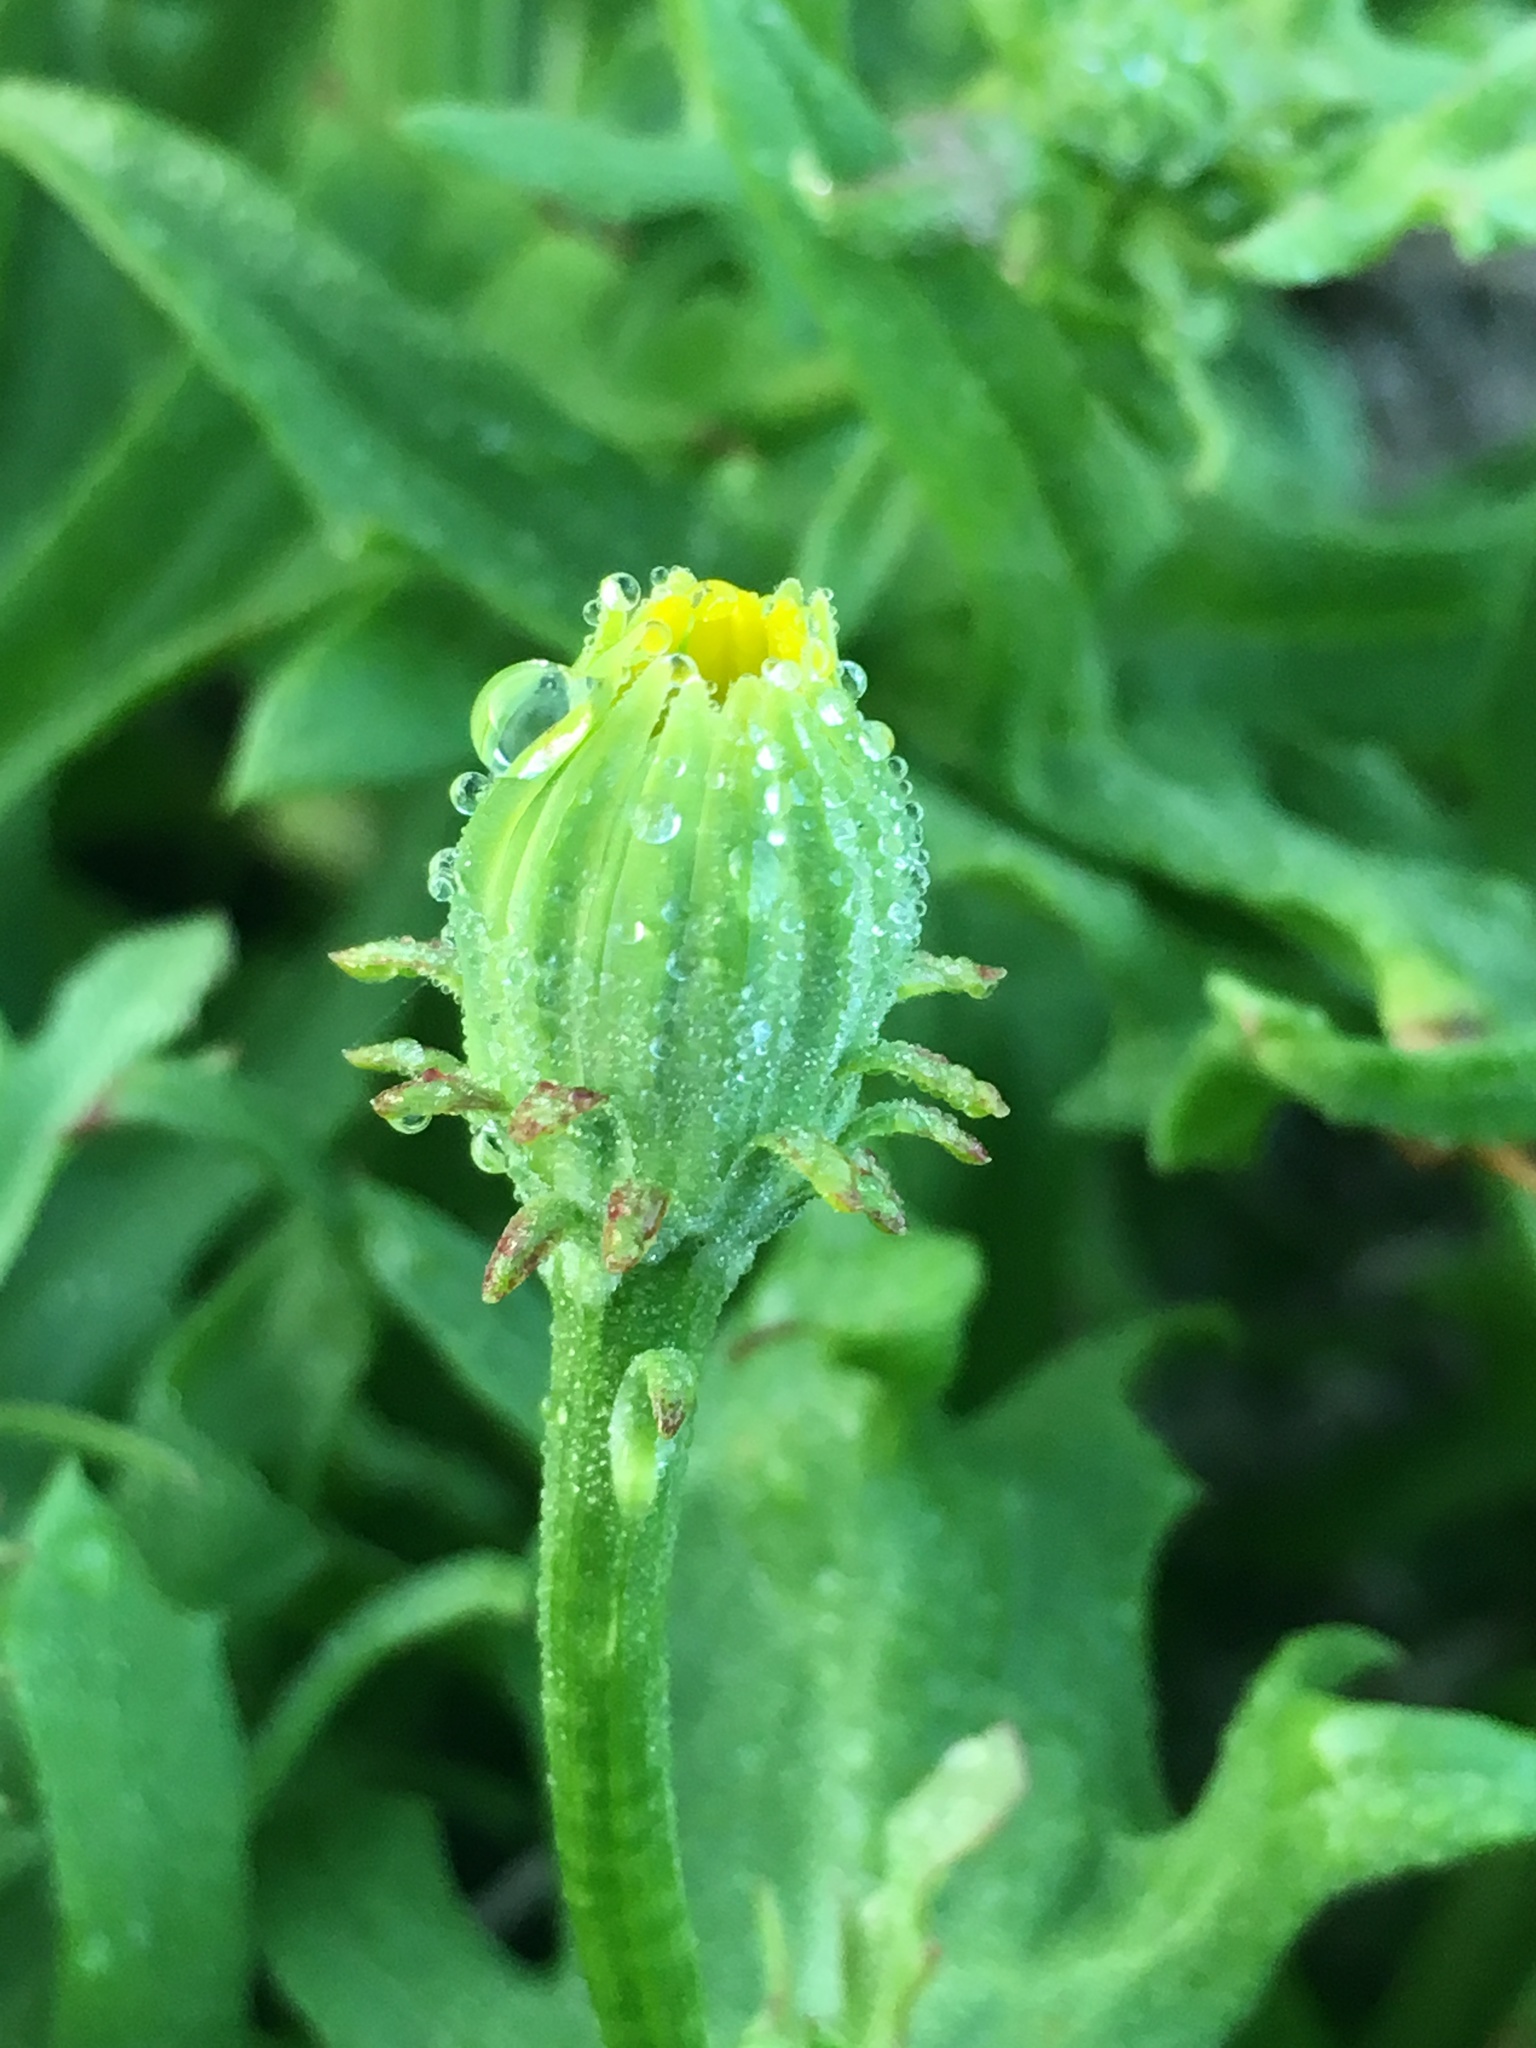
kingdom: Plantae
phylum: Tracheophyta
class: Magnoliopsida
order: Asterales
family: Asteraceae
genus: Malacothrix
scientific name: Malacothrix foliosa
